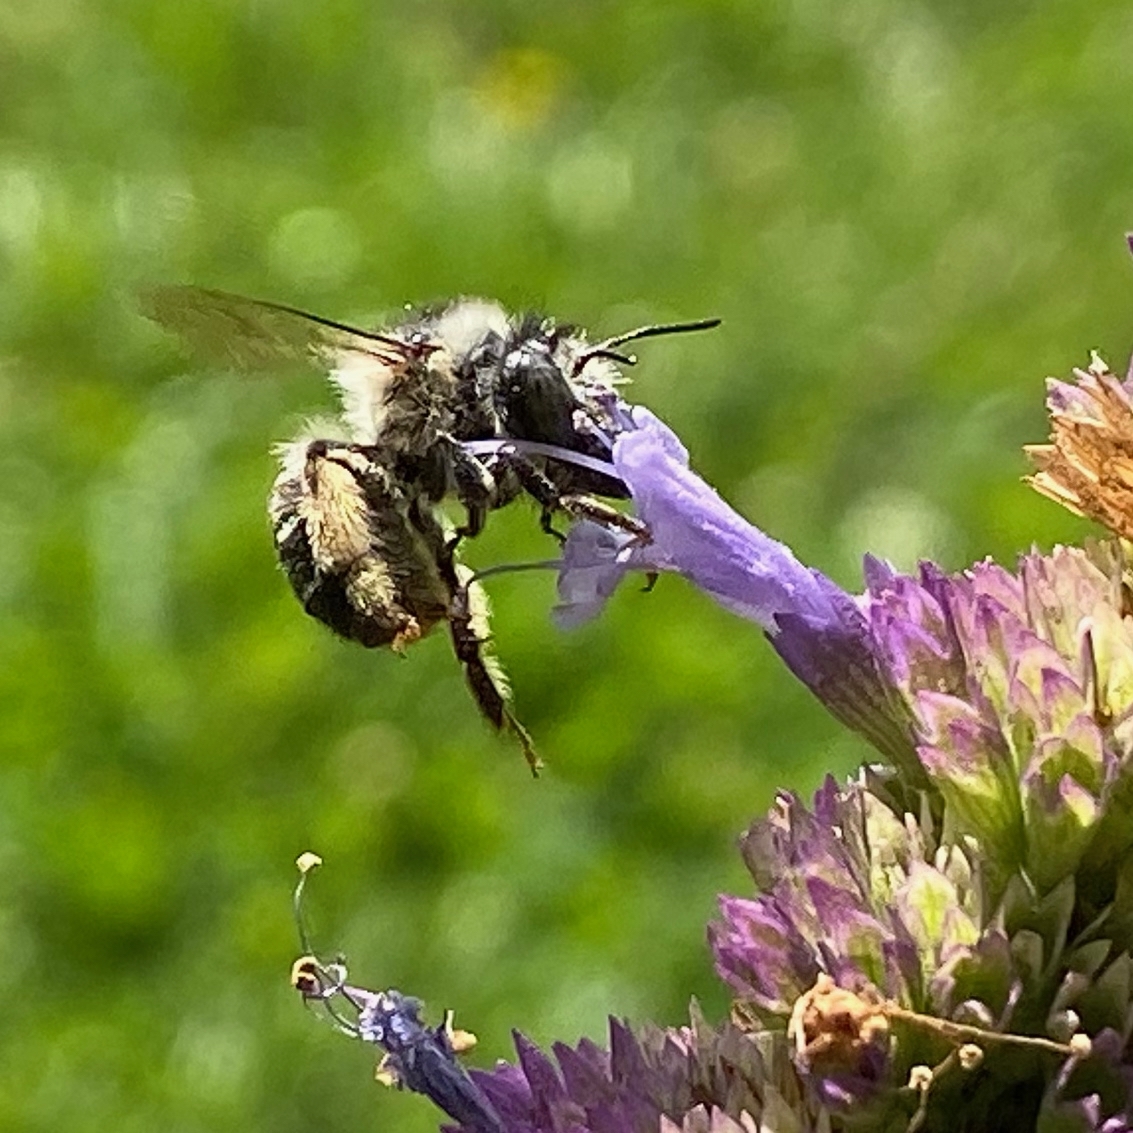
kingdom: Animalia
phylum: Arthropoda
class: Insecta
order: Hymenoptera
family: Apidae
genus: Anthophora
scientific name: Anthophora terminalis
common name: Orange-tipped wood-digger bee
